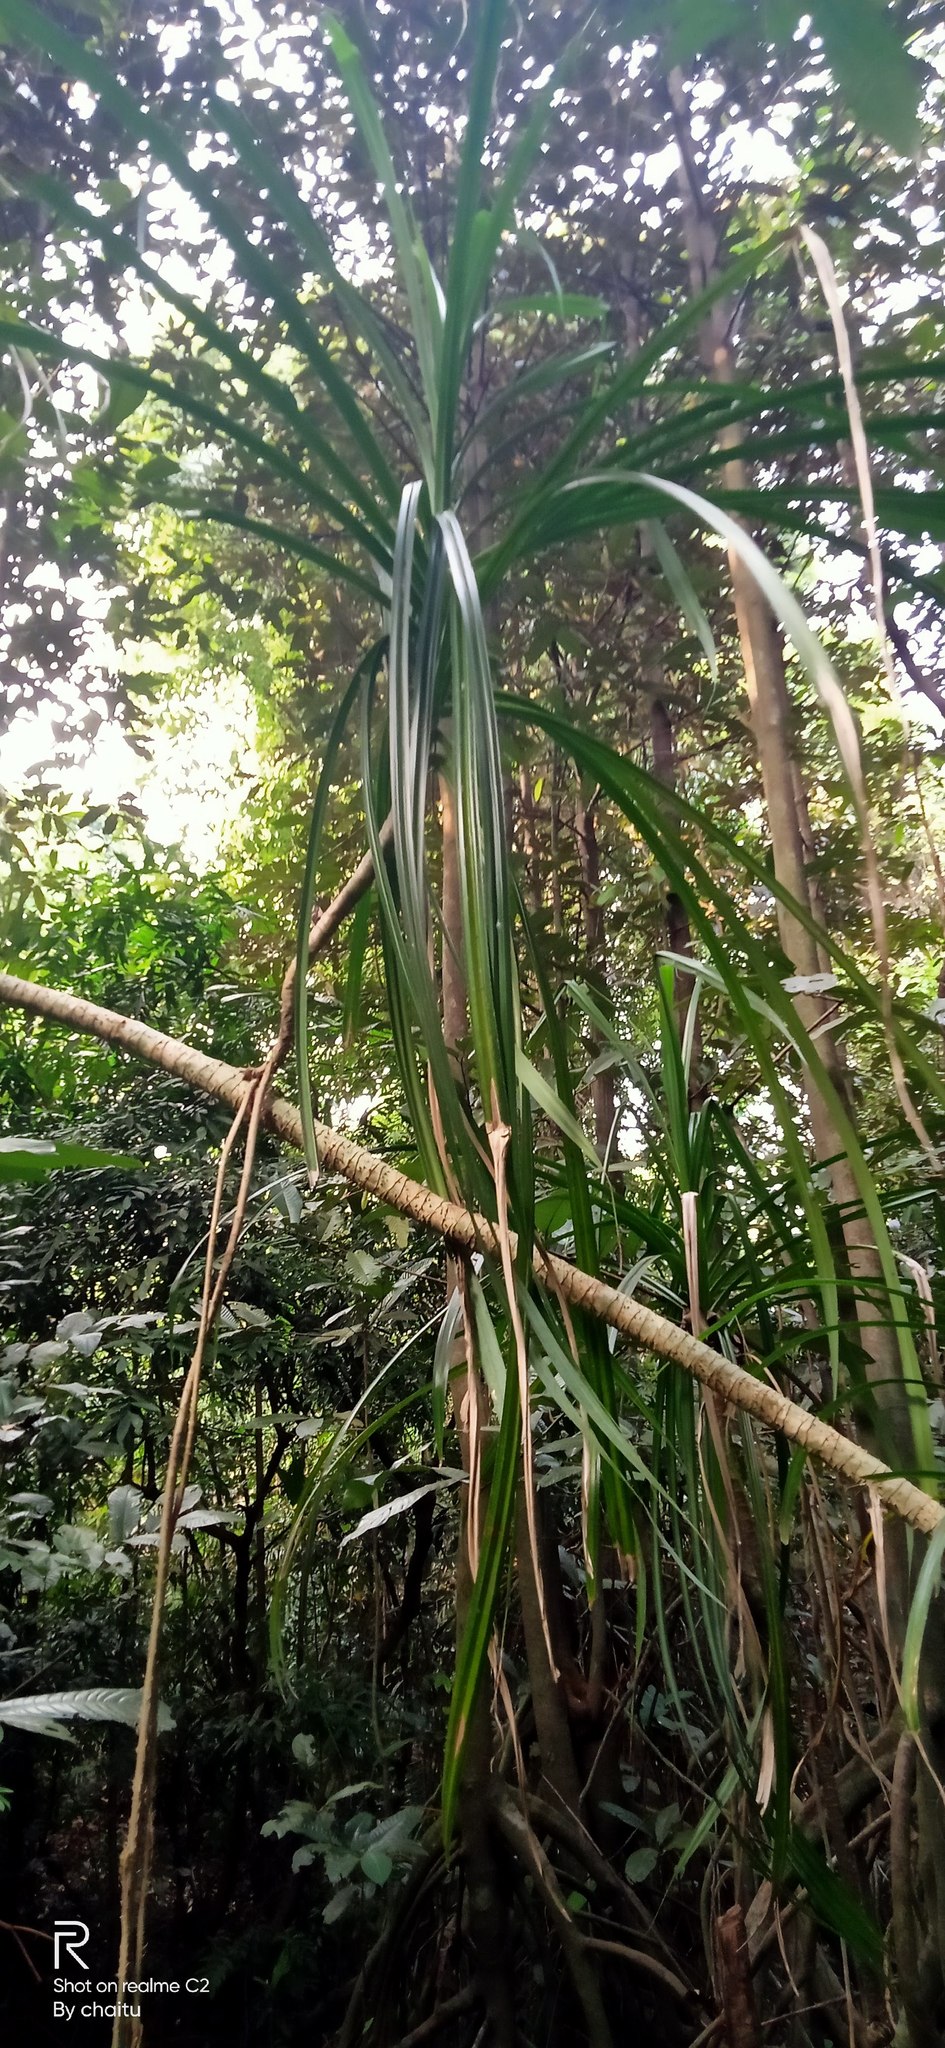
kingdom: Plantae
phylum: Tracheophyta
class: Liliopsida
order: Pandanales
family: Pandanaceae
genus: Pandanus
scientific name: Pandanus kaida
